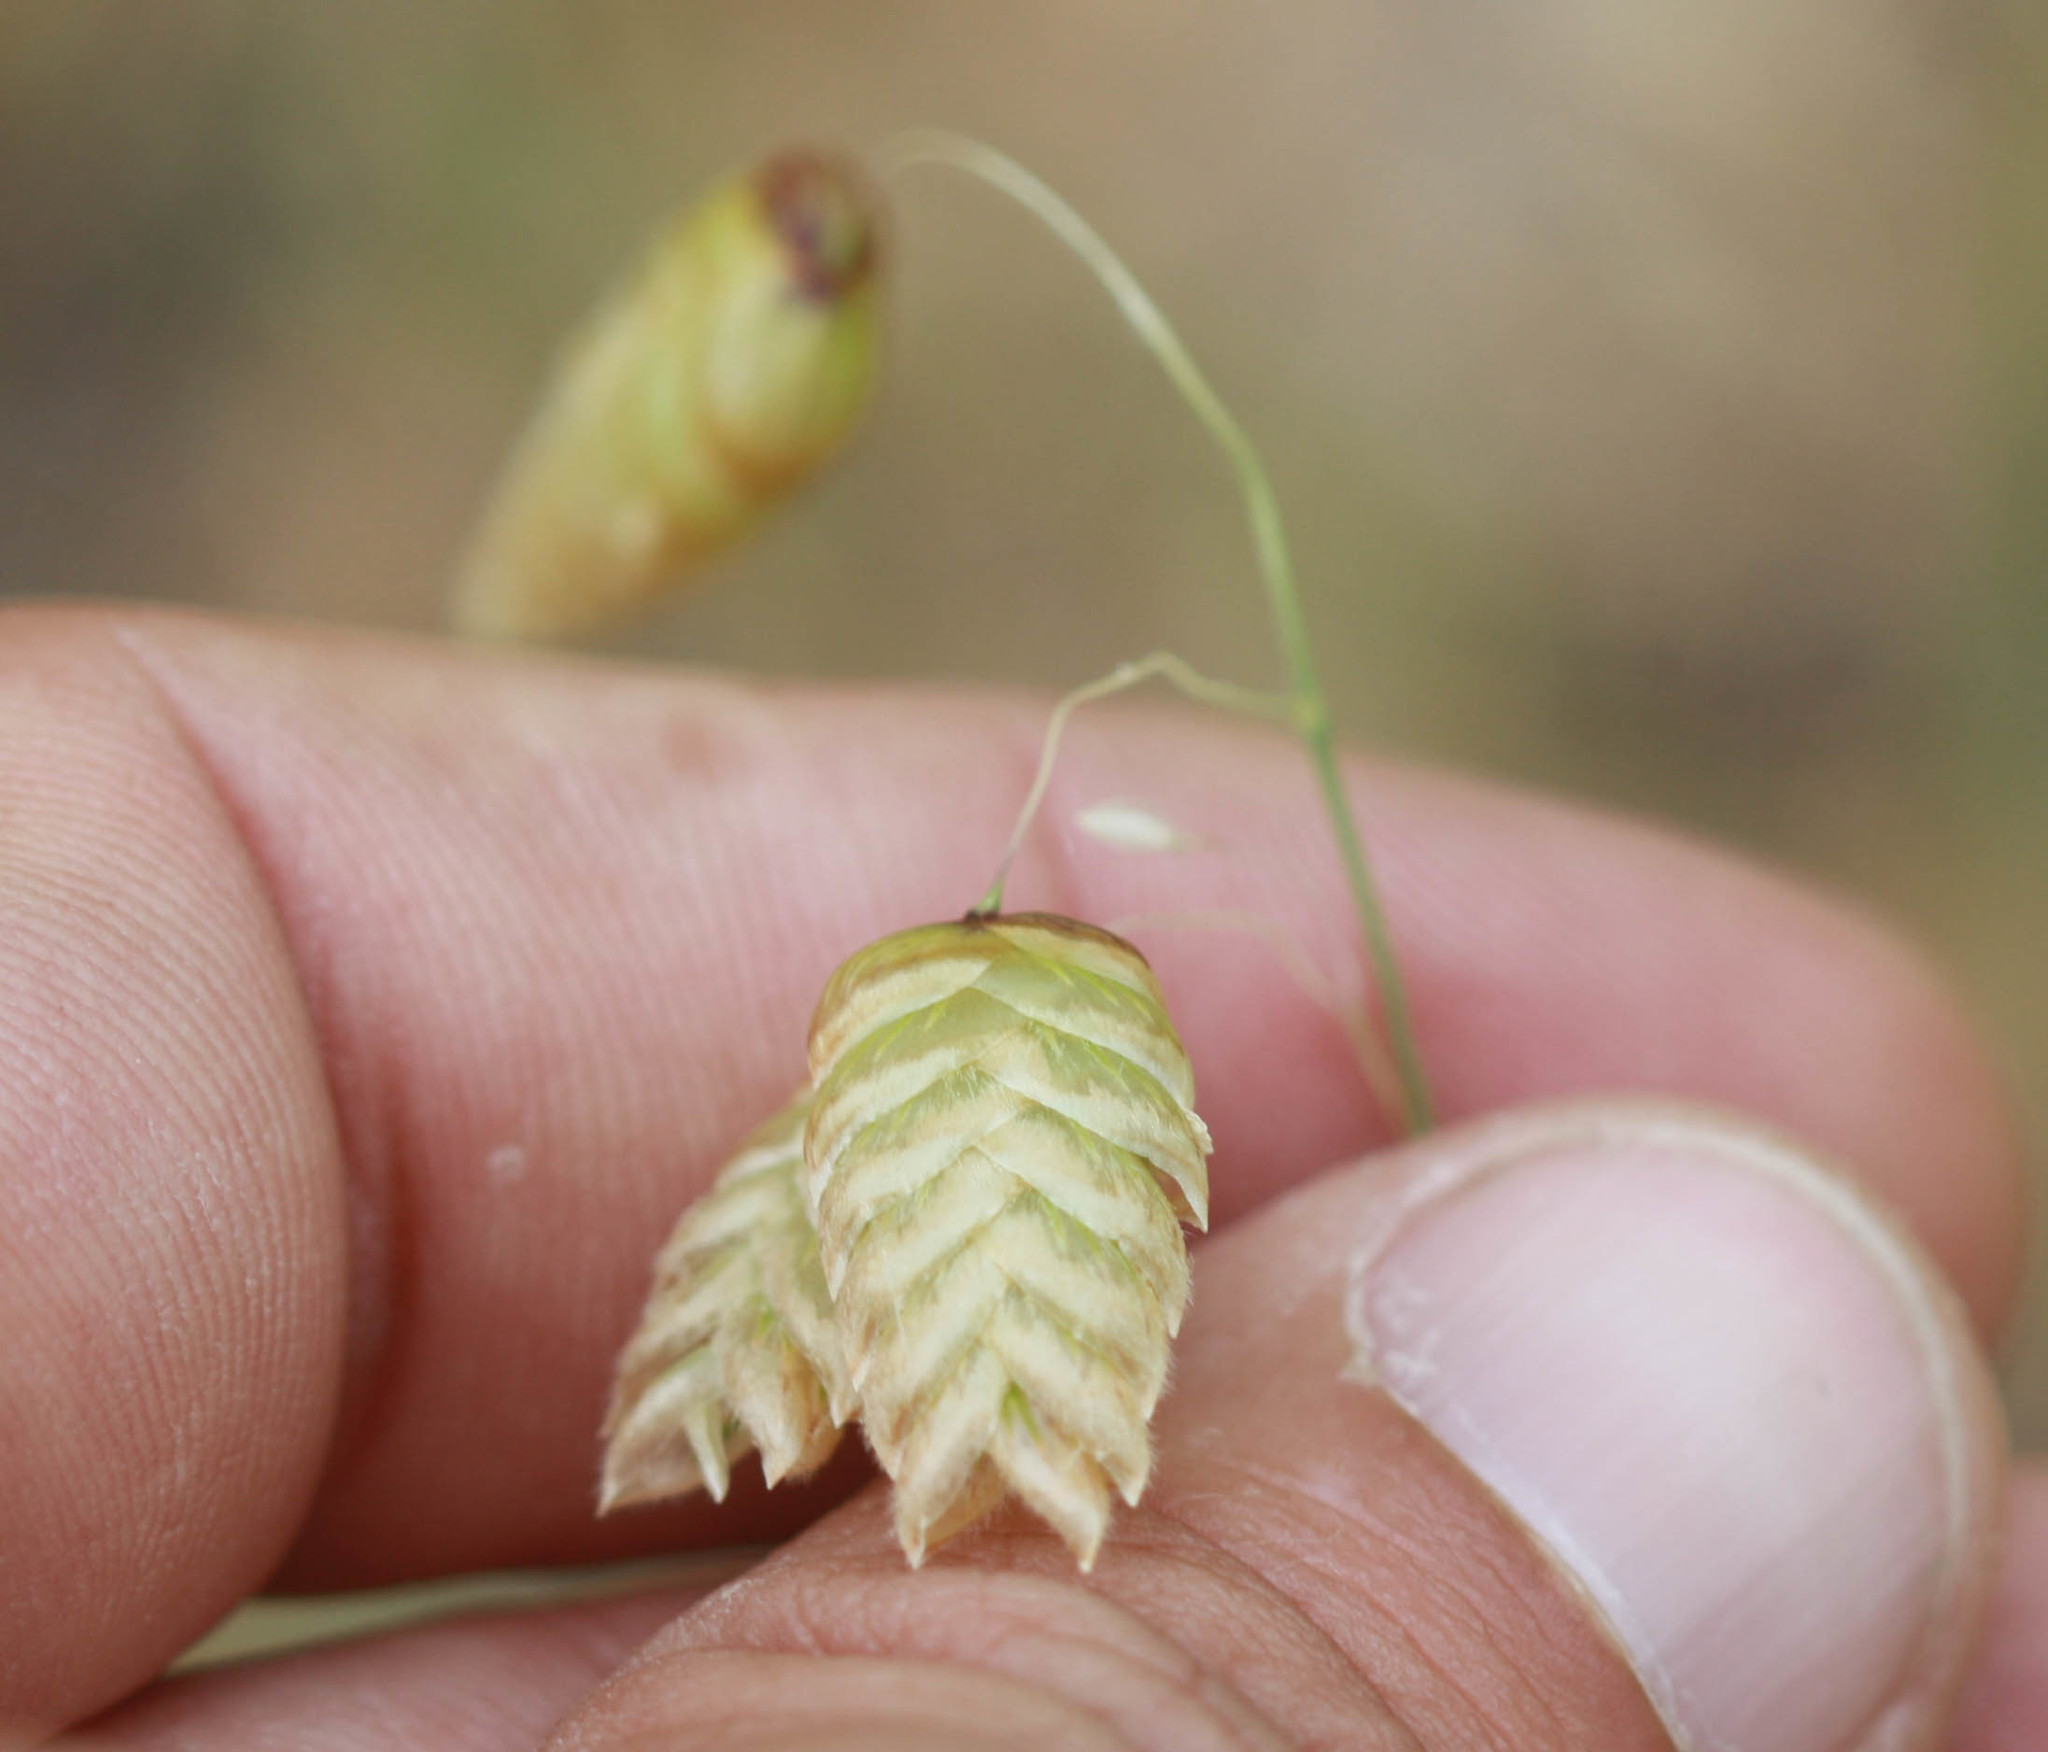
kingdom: Plantae
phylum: Tracheophyta
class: Liliopsida
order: Poales
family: Poaceae
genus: Briza
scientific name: Briza maxima
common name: Big quakinggrass
